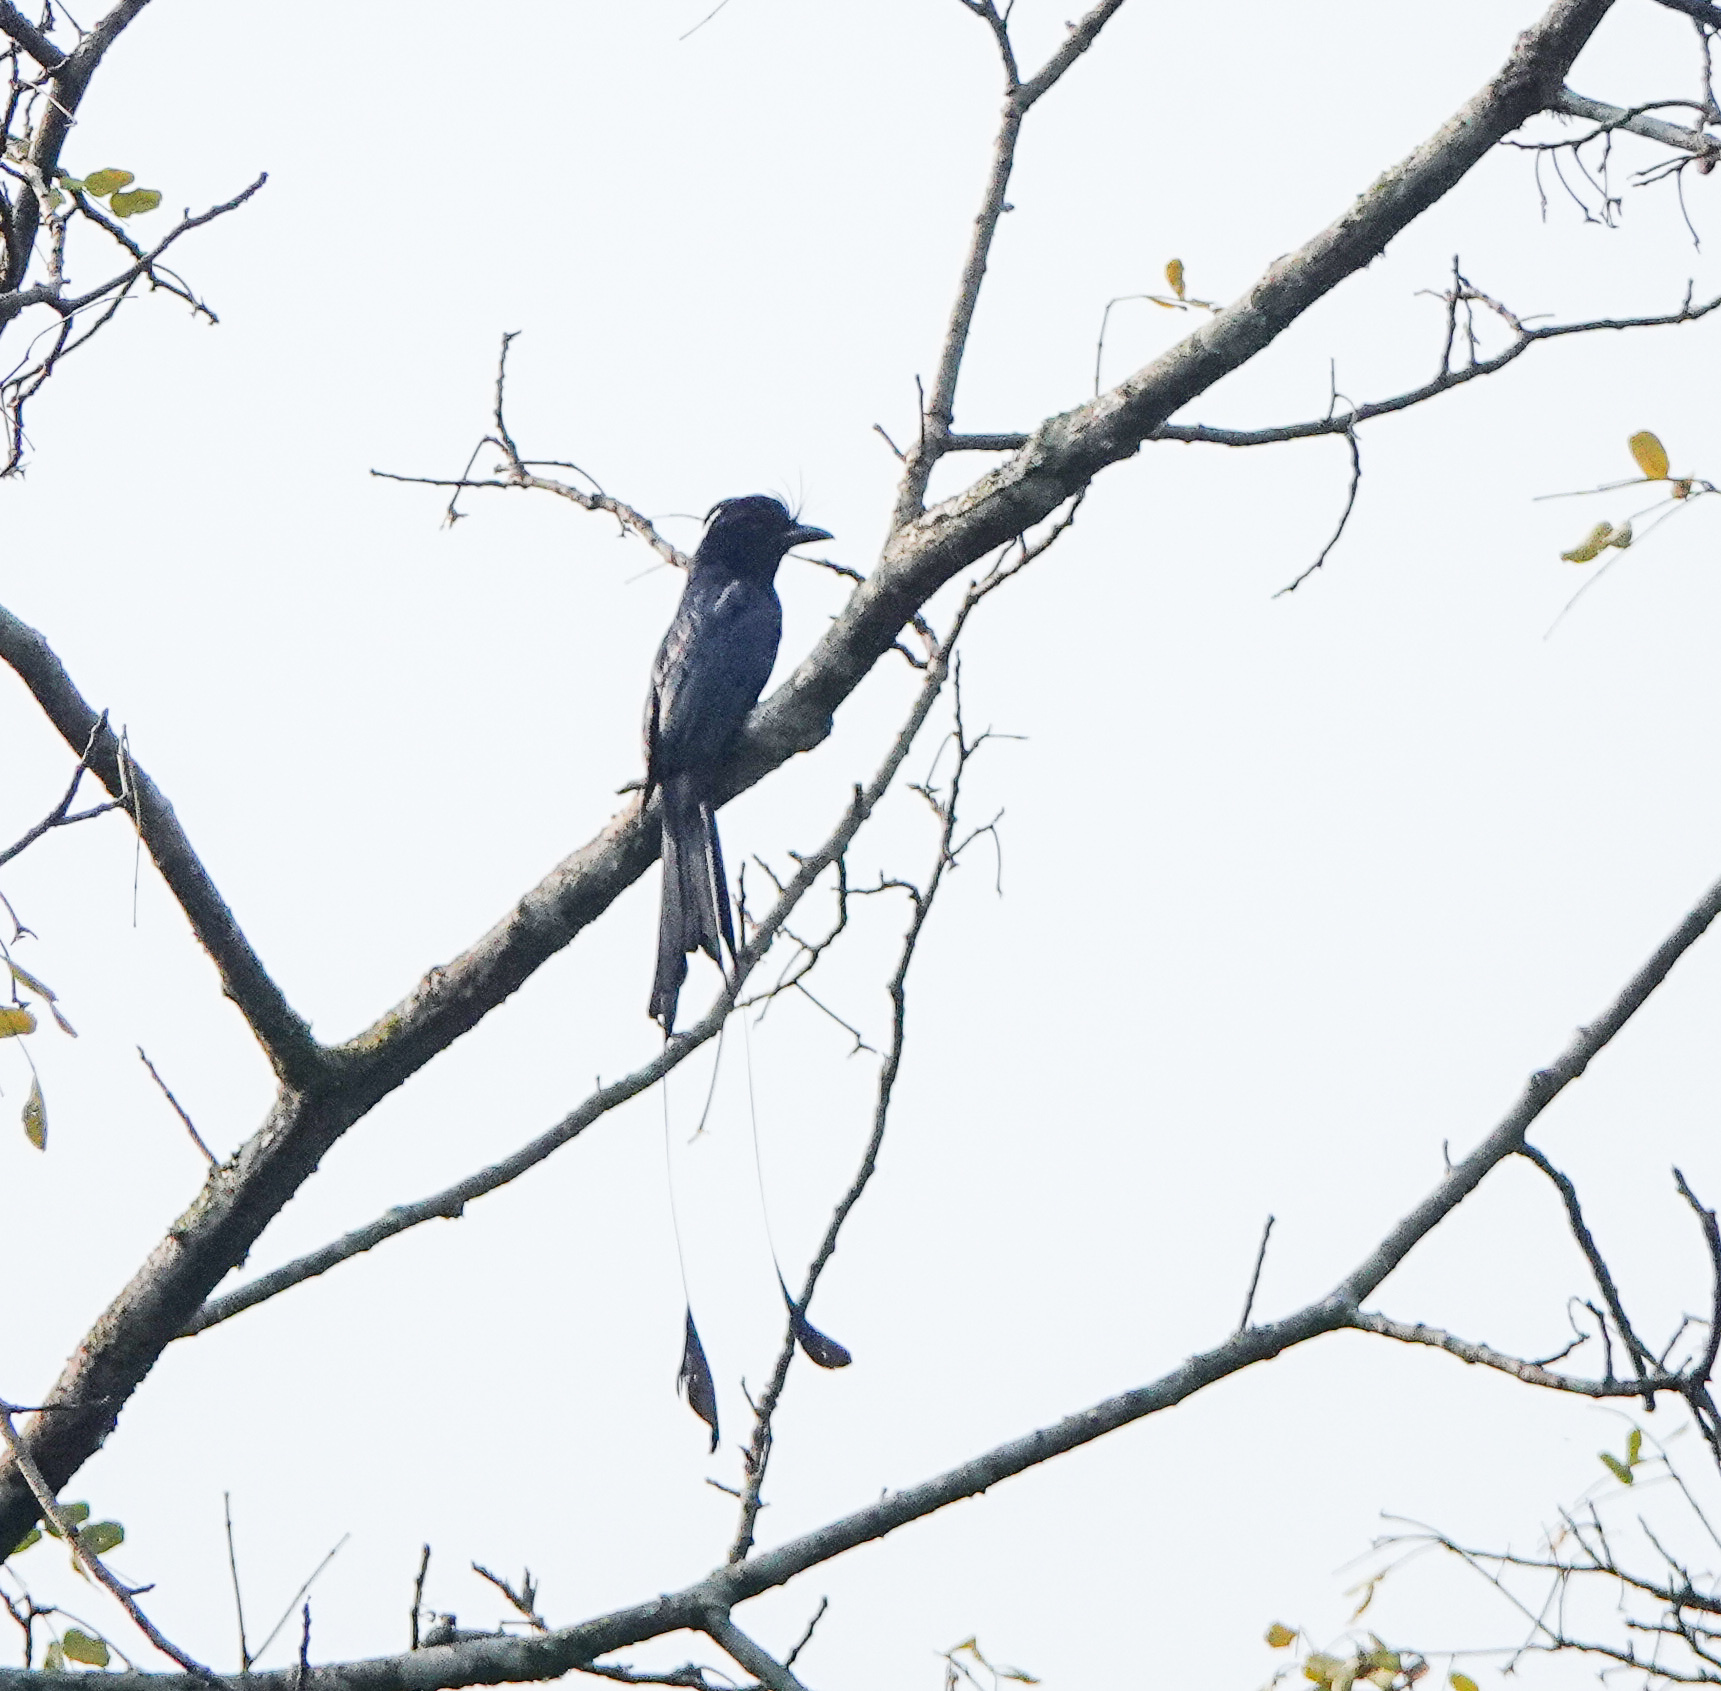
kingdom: Animalia
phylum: Chordata
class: Aves
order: Passeriformes
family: Dicruridae
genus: Dicrurus
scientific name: Dicrurus paradiseus
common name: Greater racket-tailed drongo
